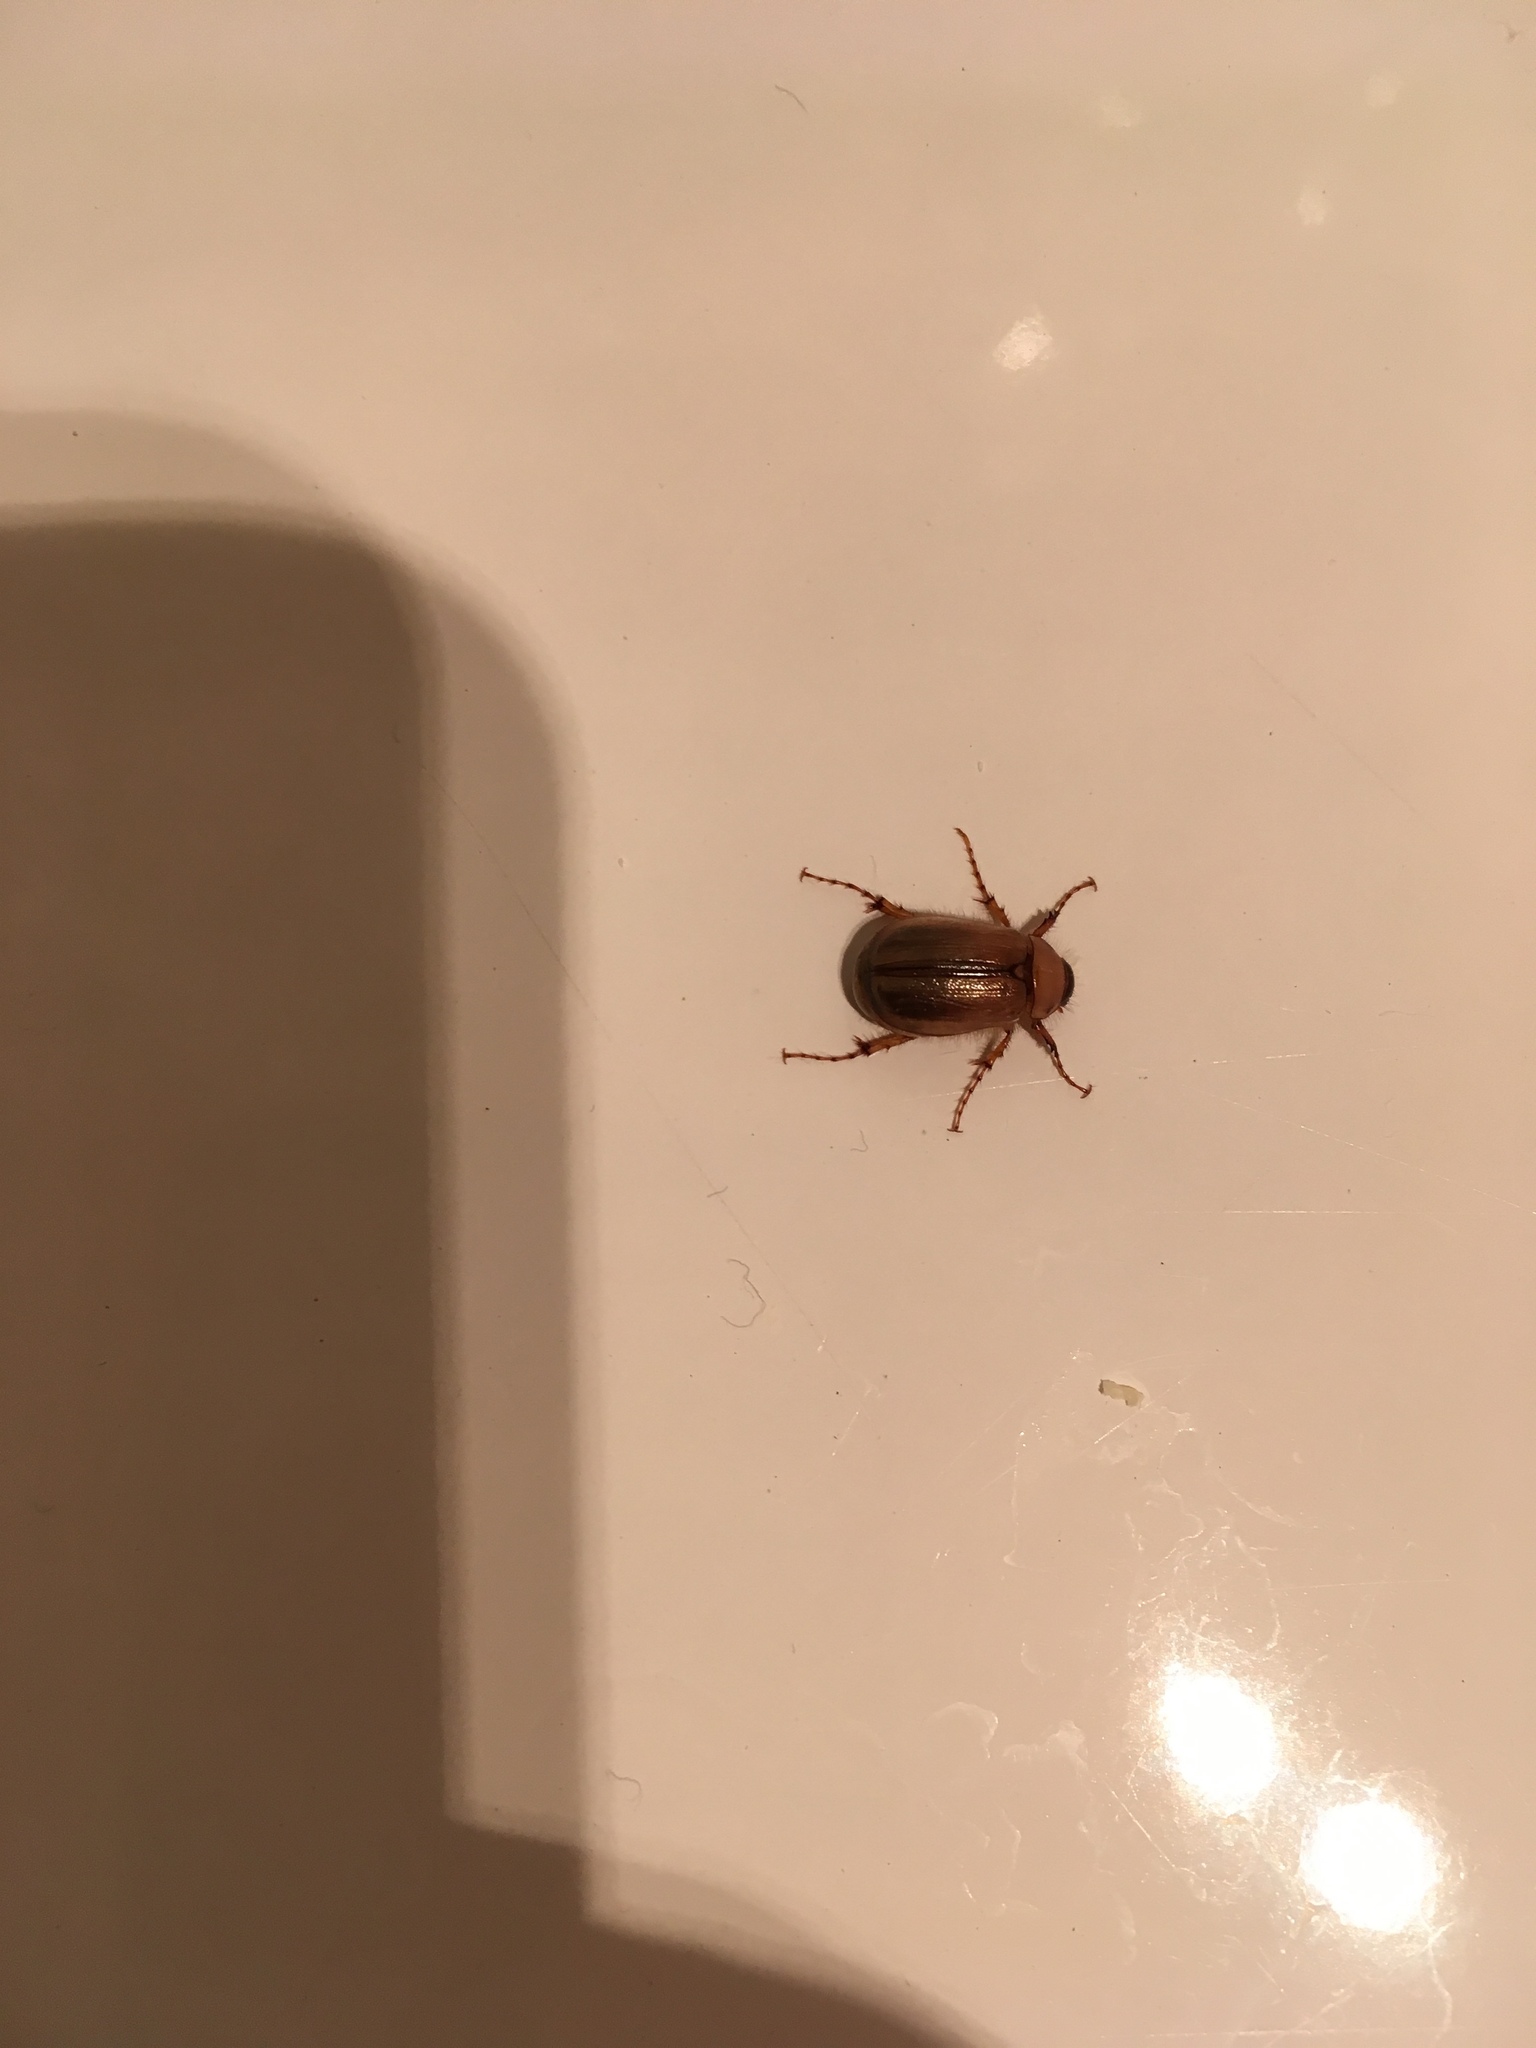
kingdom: Animalia
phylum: Arthropoda
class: Insecta
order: Coleoptera
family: Scarabaeidae
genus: Costelytra
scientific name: Costelytra zealandica
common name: New zealand grass grub
